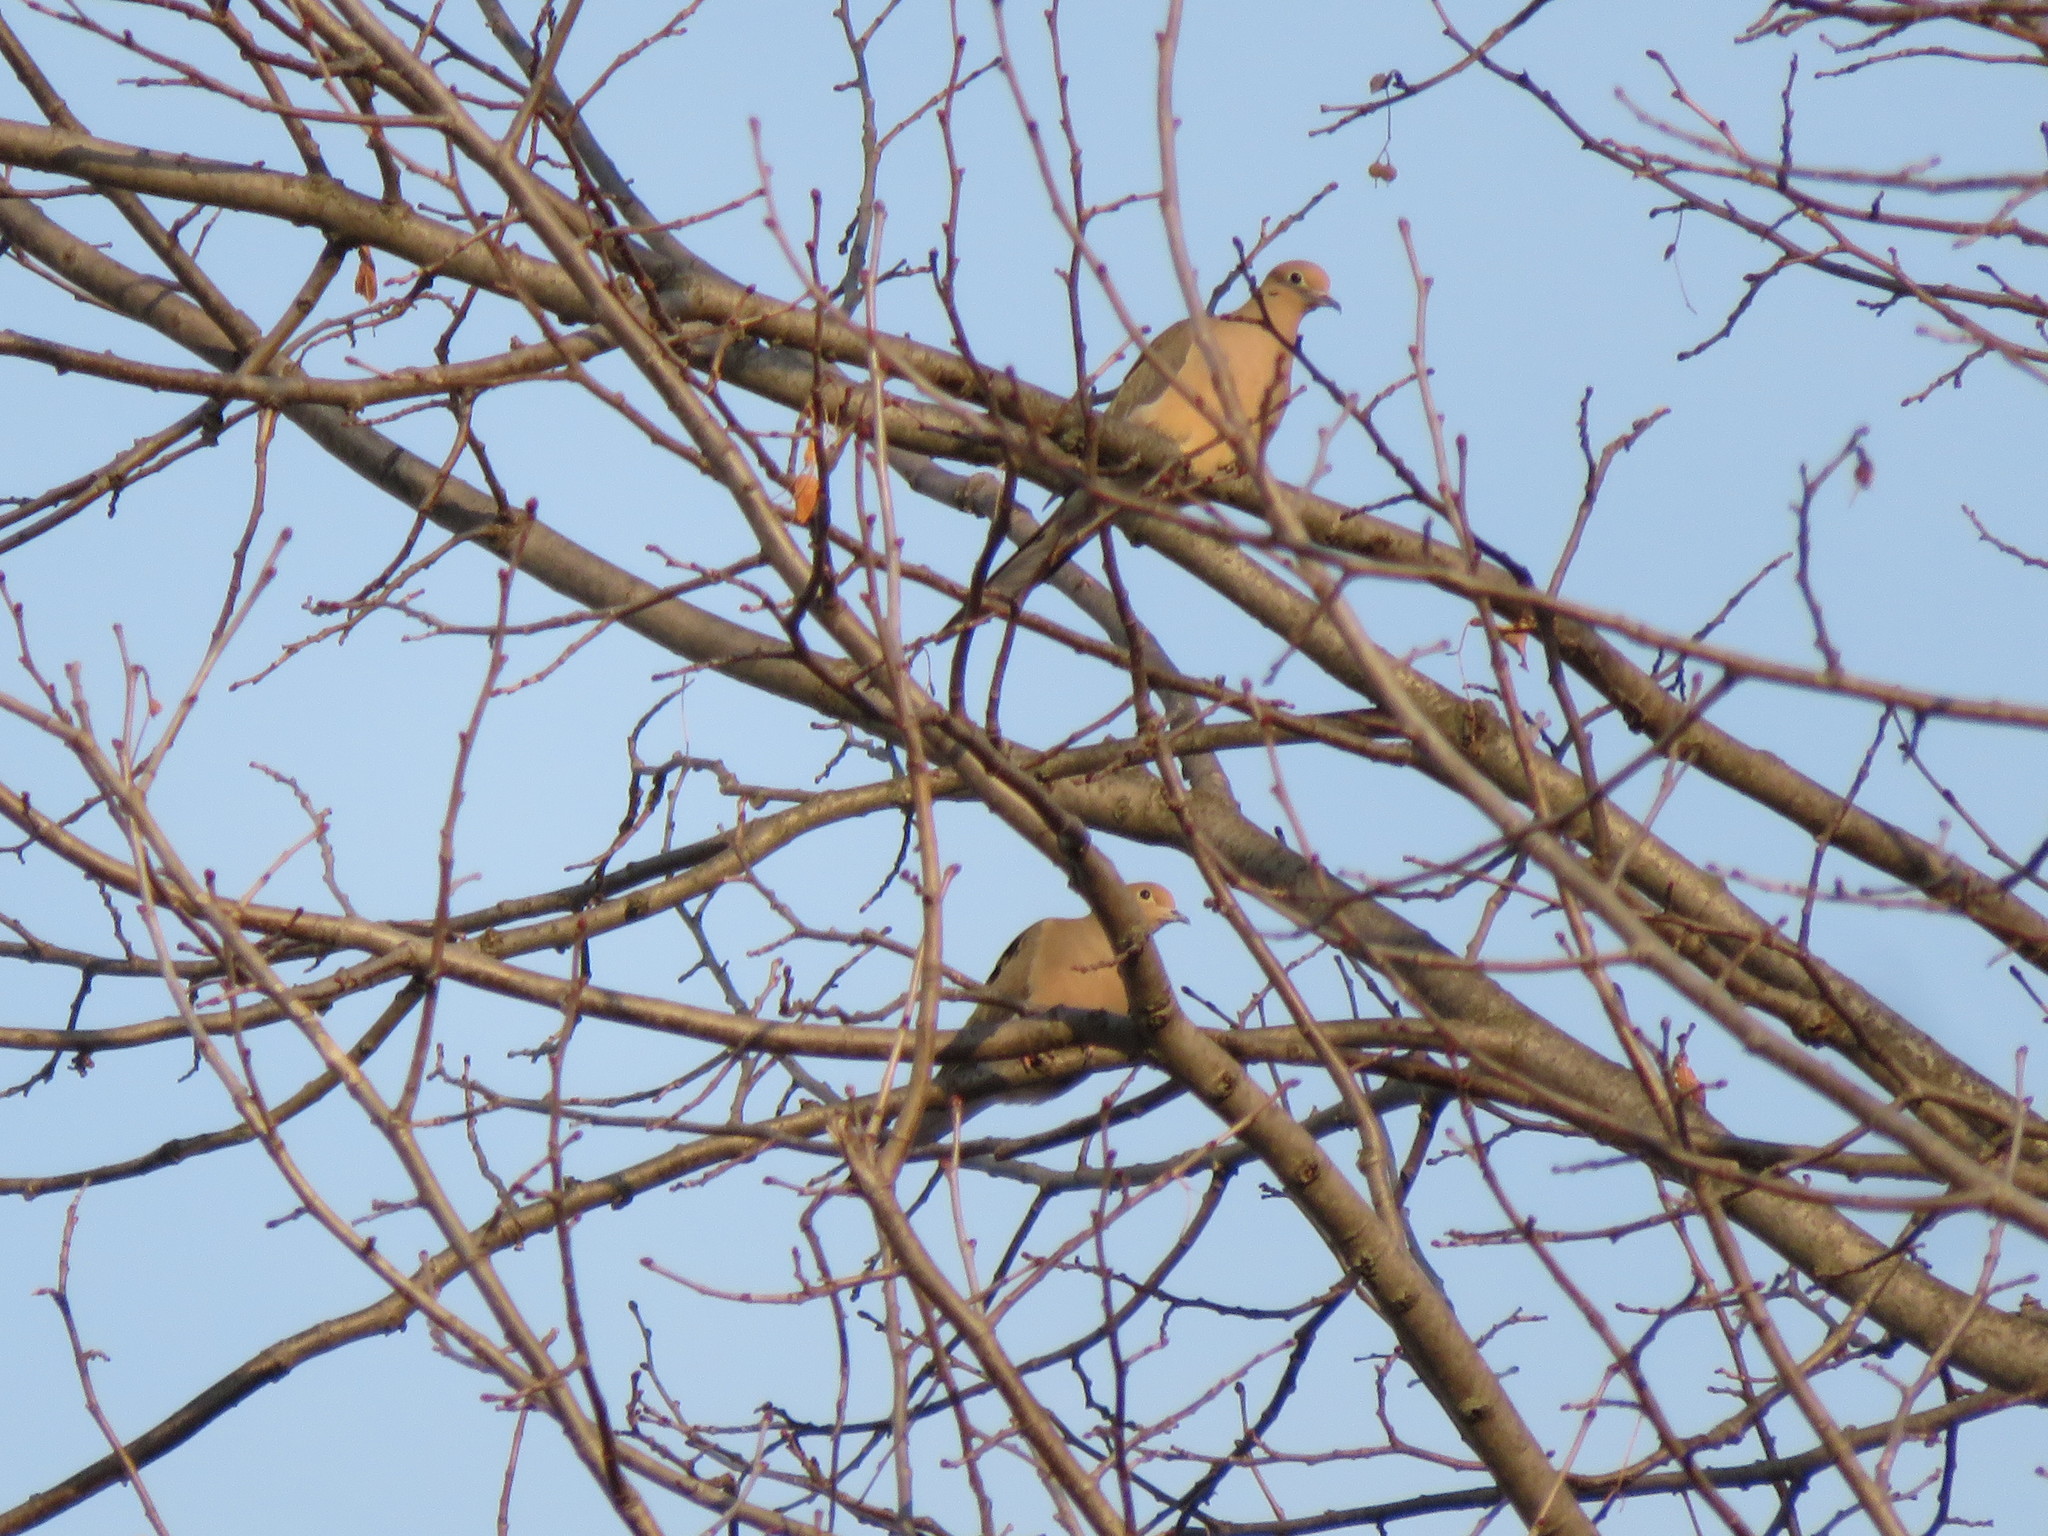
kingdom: Animalia
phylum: Chordata
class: Aves
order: Columbiformes
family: Columbidae
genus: Zenaida
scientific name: Zenaida macroura
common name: Mourning dove
